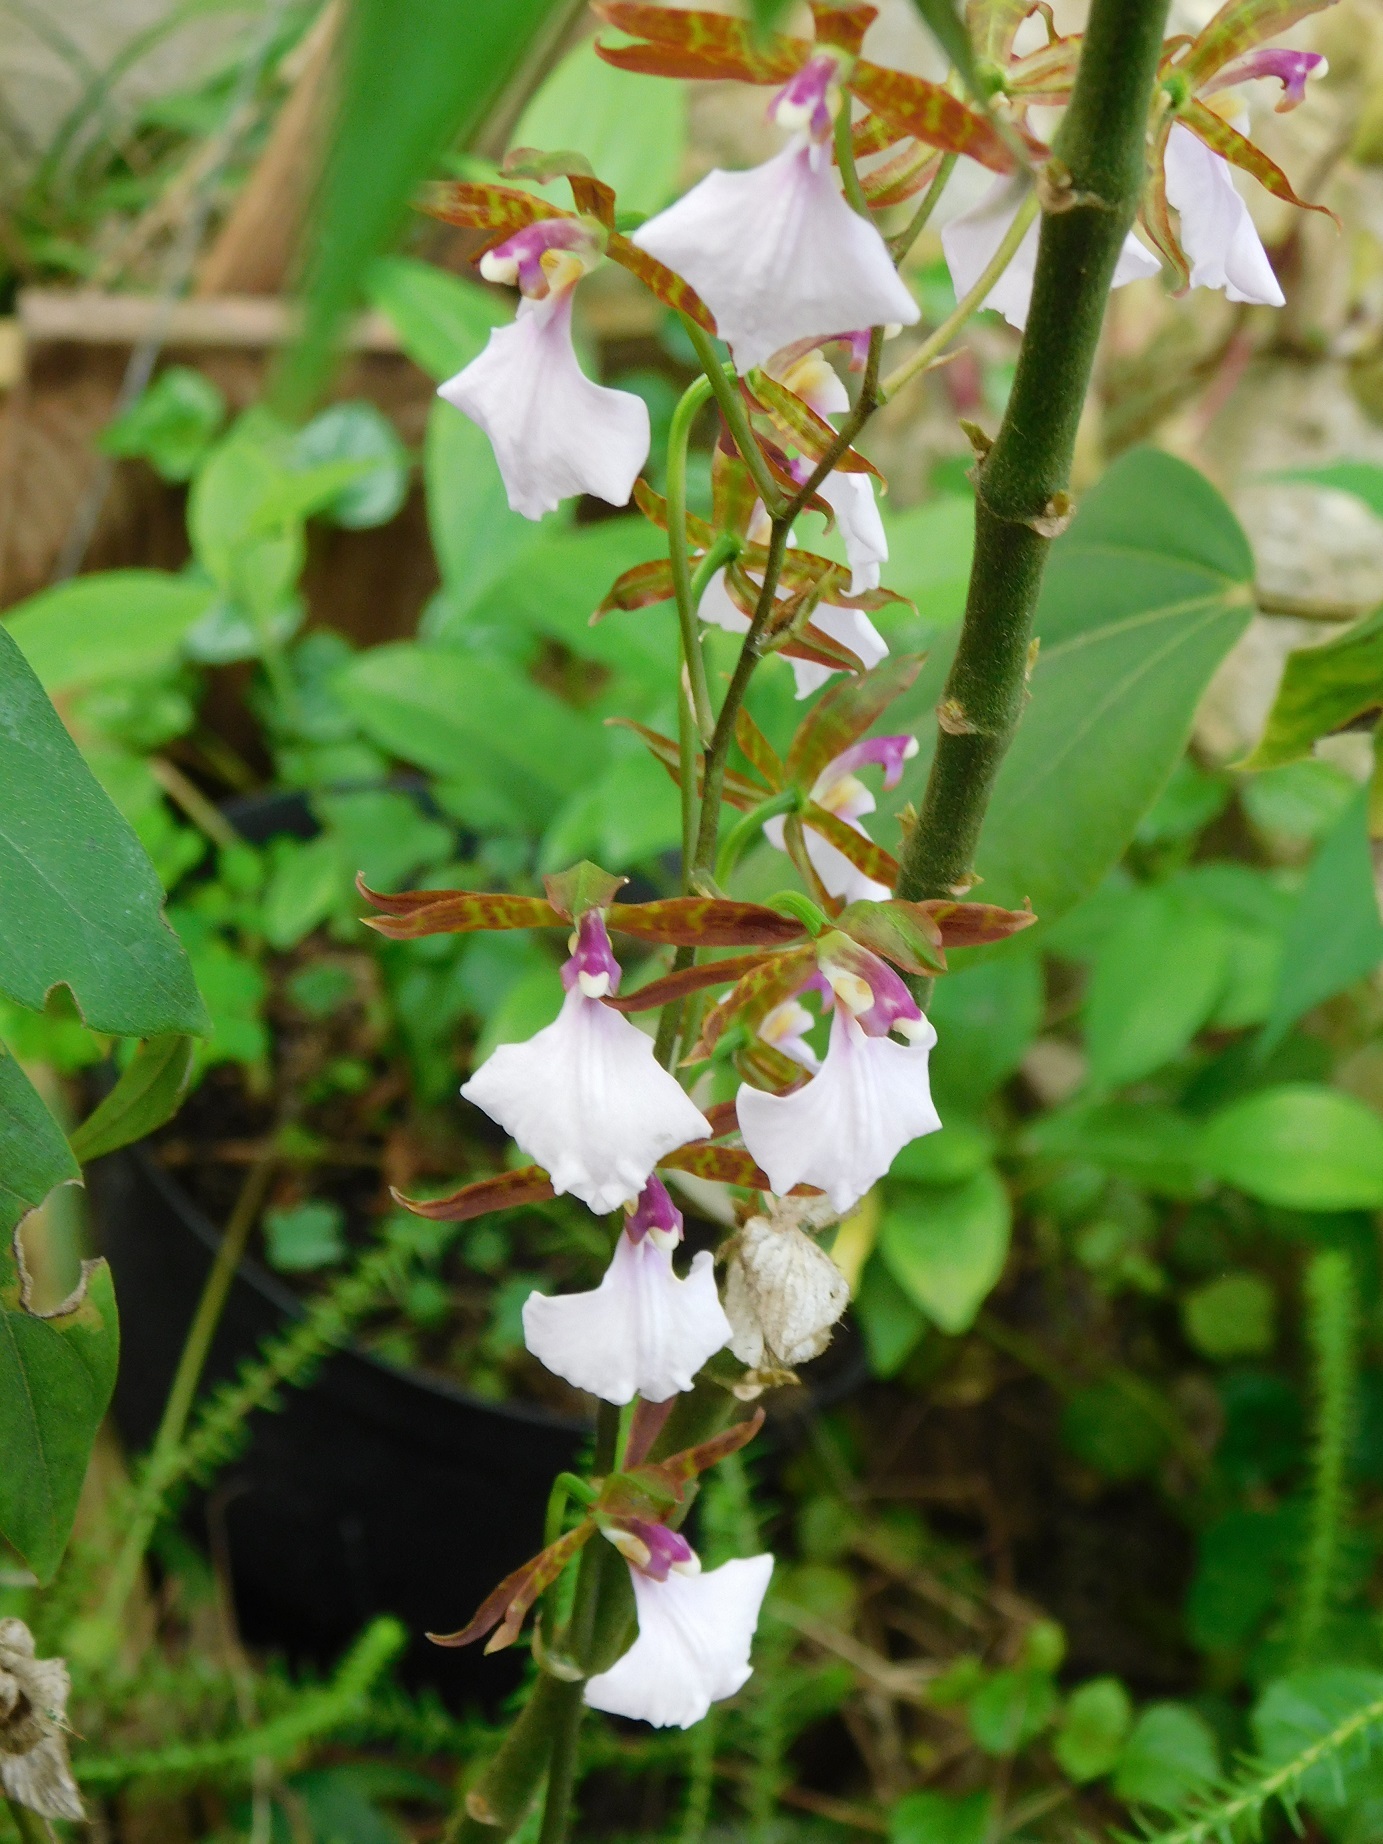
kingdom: Plantae
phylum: Tracheophyta
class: Liliopsida
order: Asparagales
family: Orchidaceae
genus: Rhynchostele
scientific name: Rhynchostele bictoniensis
